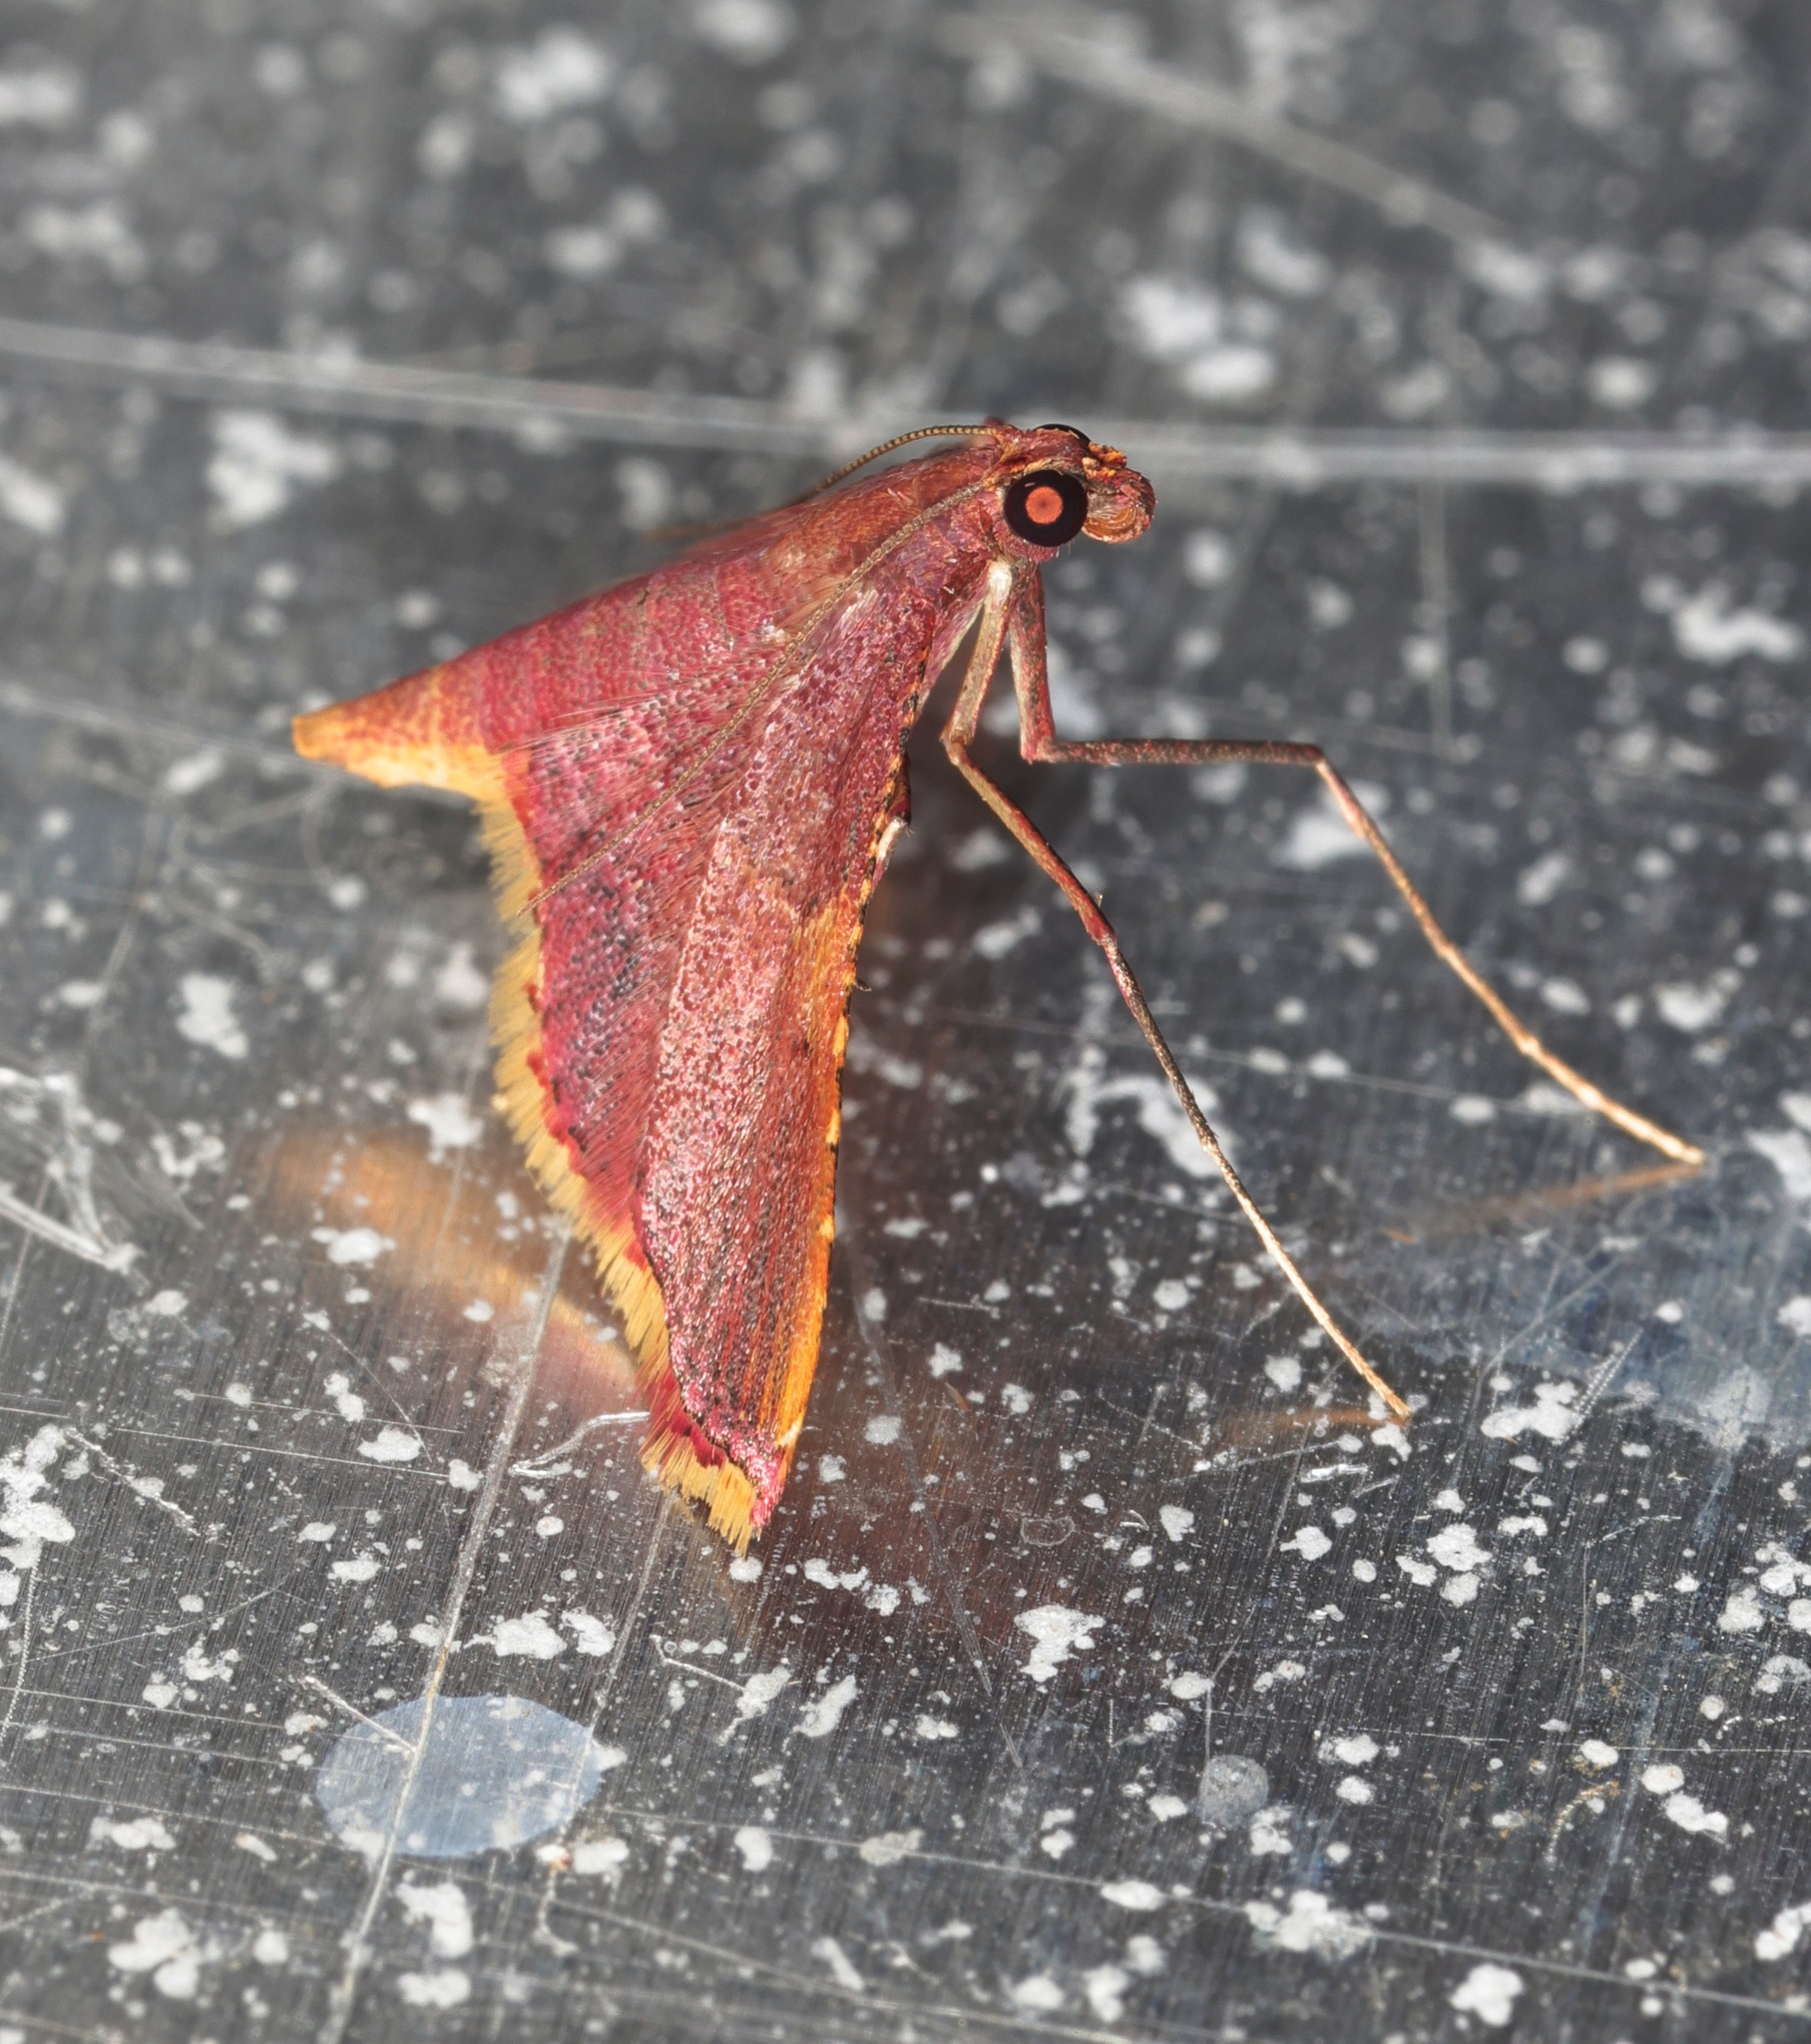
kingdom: Animalia
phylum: Arthropoda
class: Insecta
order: Lepidoptera
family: Pyralidae
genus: Endotricha
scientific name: Endotricha olivacealis
